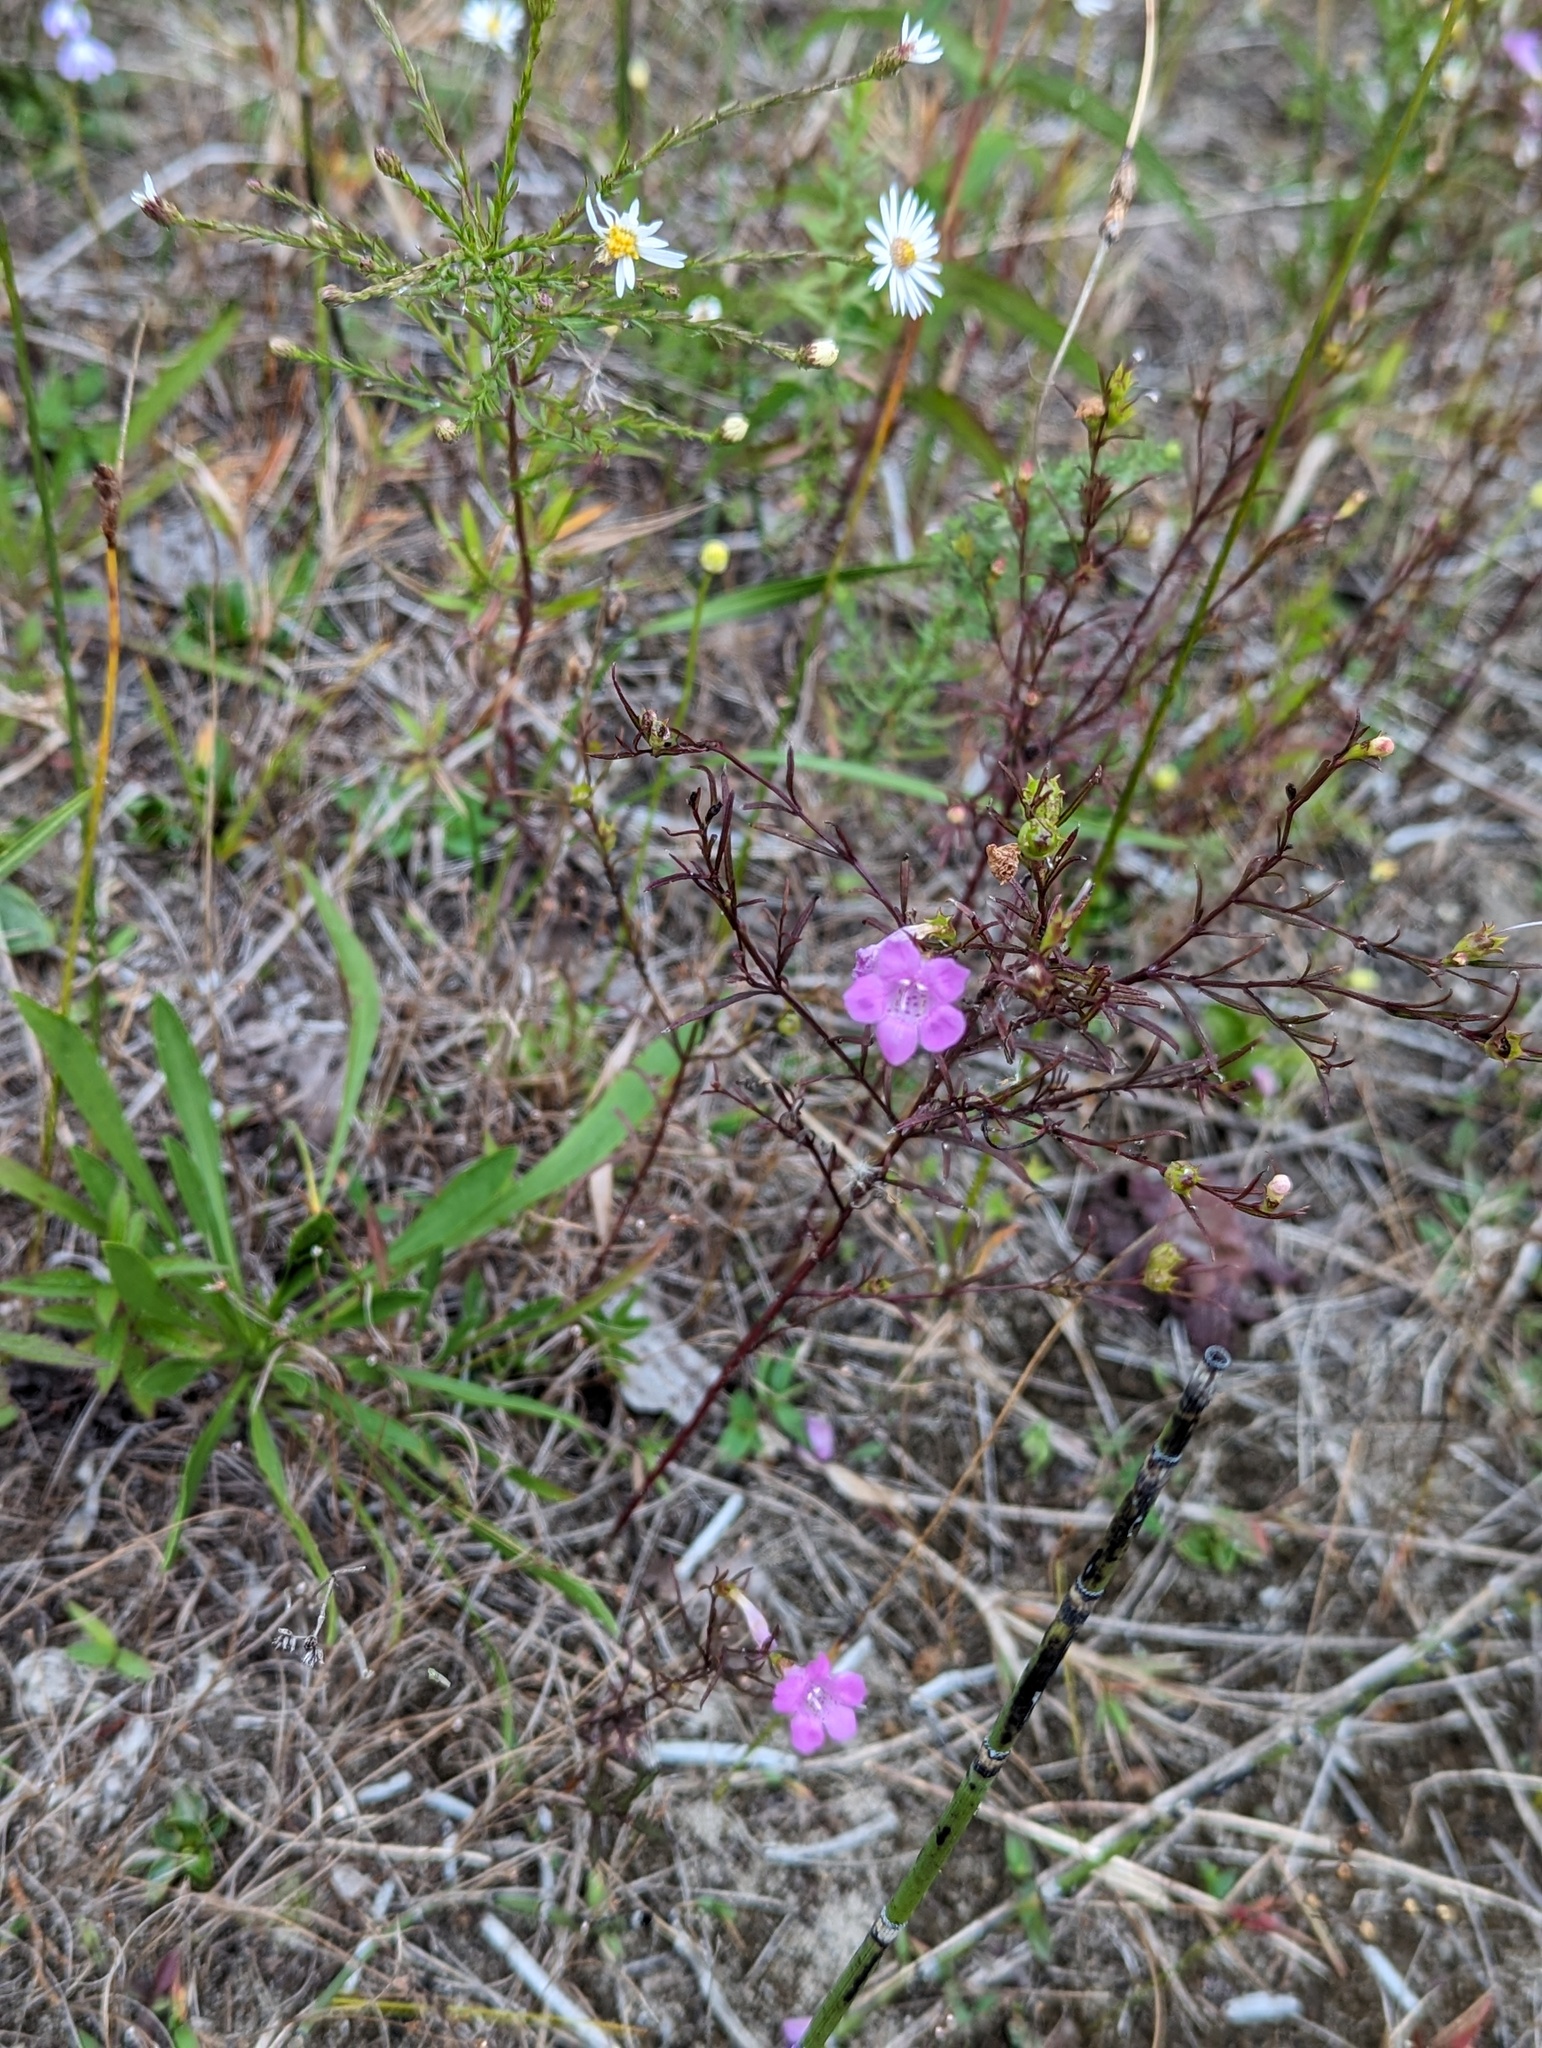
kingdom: Plantae
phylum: Tracheophyta
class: Magnoliopsida
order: Lamiales
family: Orobanchaceae
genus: Agalinis
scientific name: Agalinis purpurea
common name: Purple false foxglove
